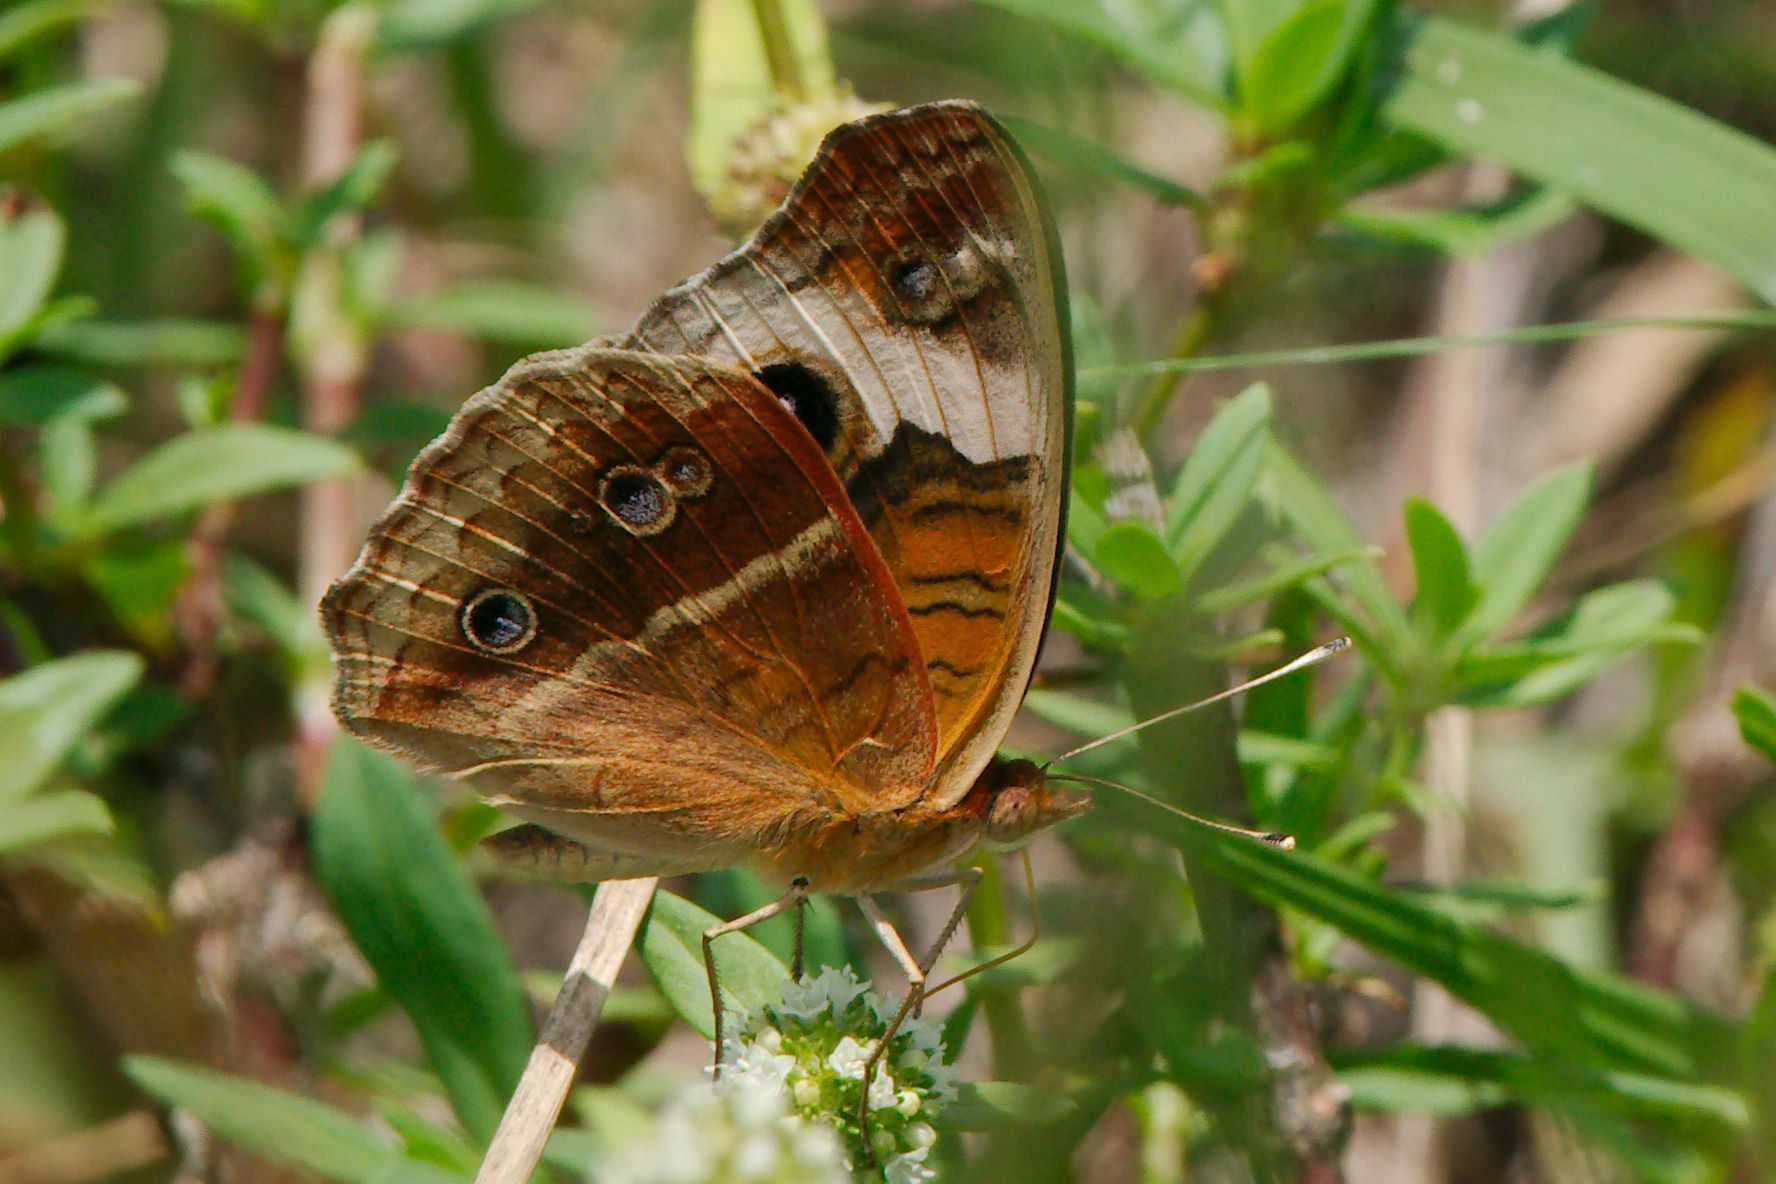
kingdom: Animalia
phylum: Arthropoda
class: Insecta
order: Lepidoptera
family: Nymphalidae
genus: Junonia
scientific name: Junonia lavinia
